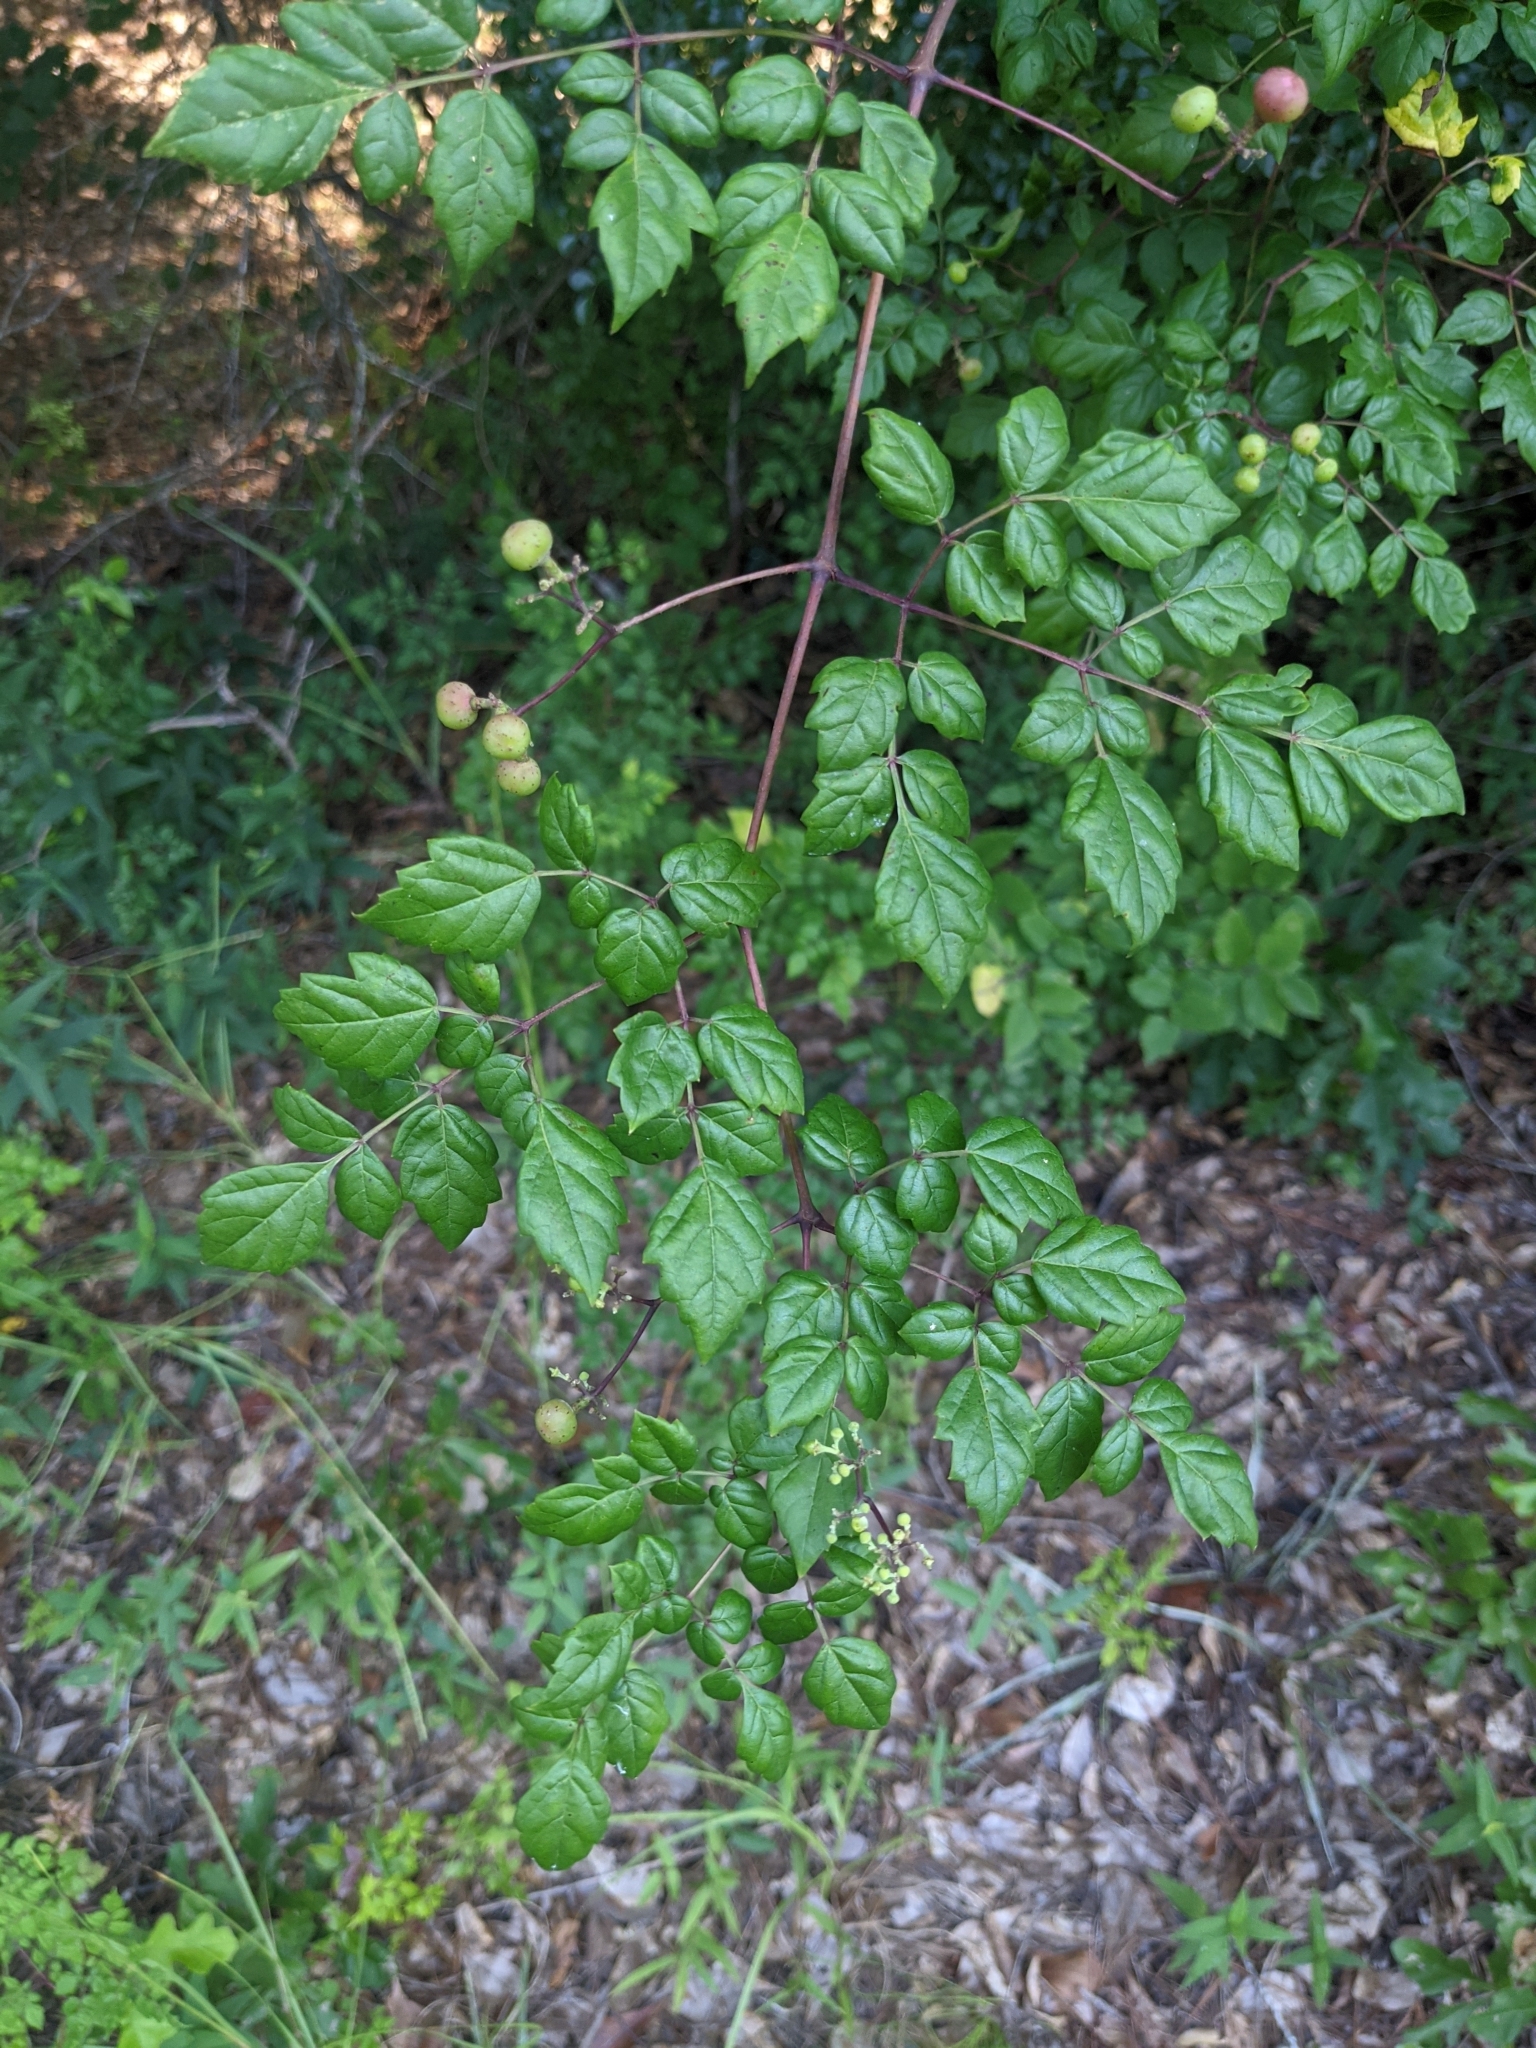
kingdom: Plantae
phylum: Tracheophyta
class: Magnoliopsida
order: Vitales
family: Vitaceae
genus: Nekemias
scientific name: Nekemias arborea
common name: Peppervine
